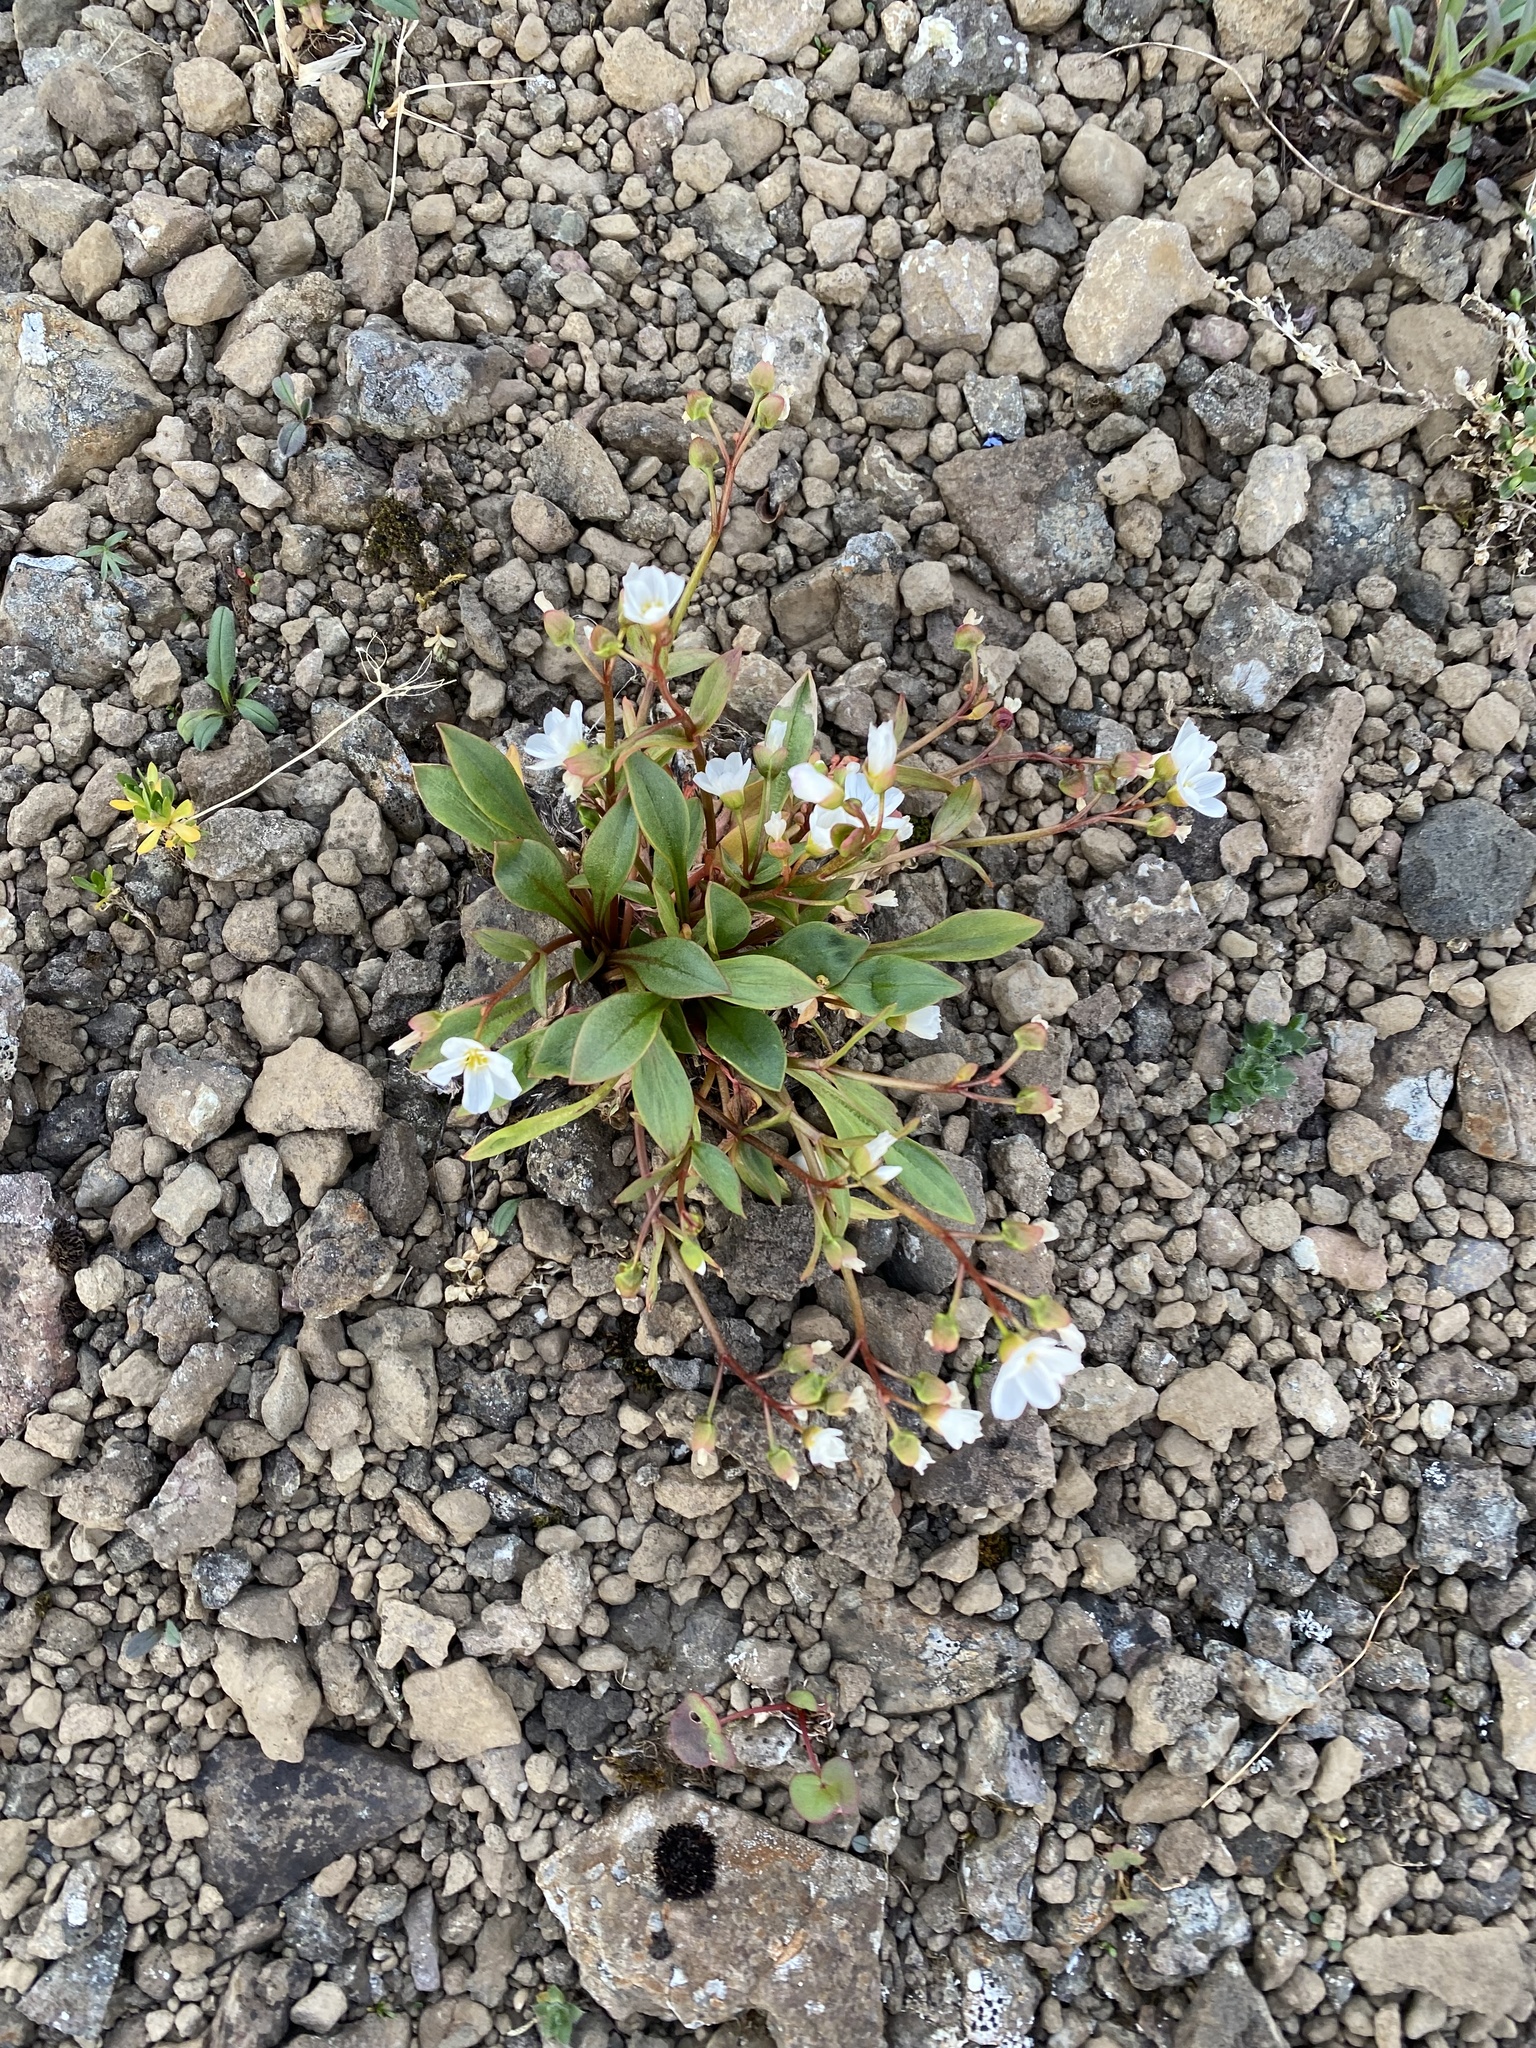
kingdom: Plantae
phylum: Tracheophyta
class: Magnoliopsida
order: Caryophyllales
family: Montiaceae
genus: Claytonia
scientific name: Claytonia joanneana
